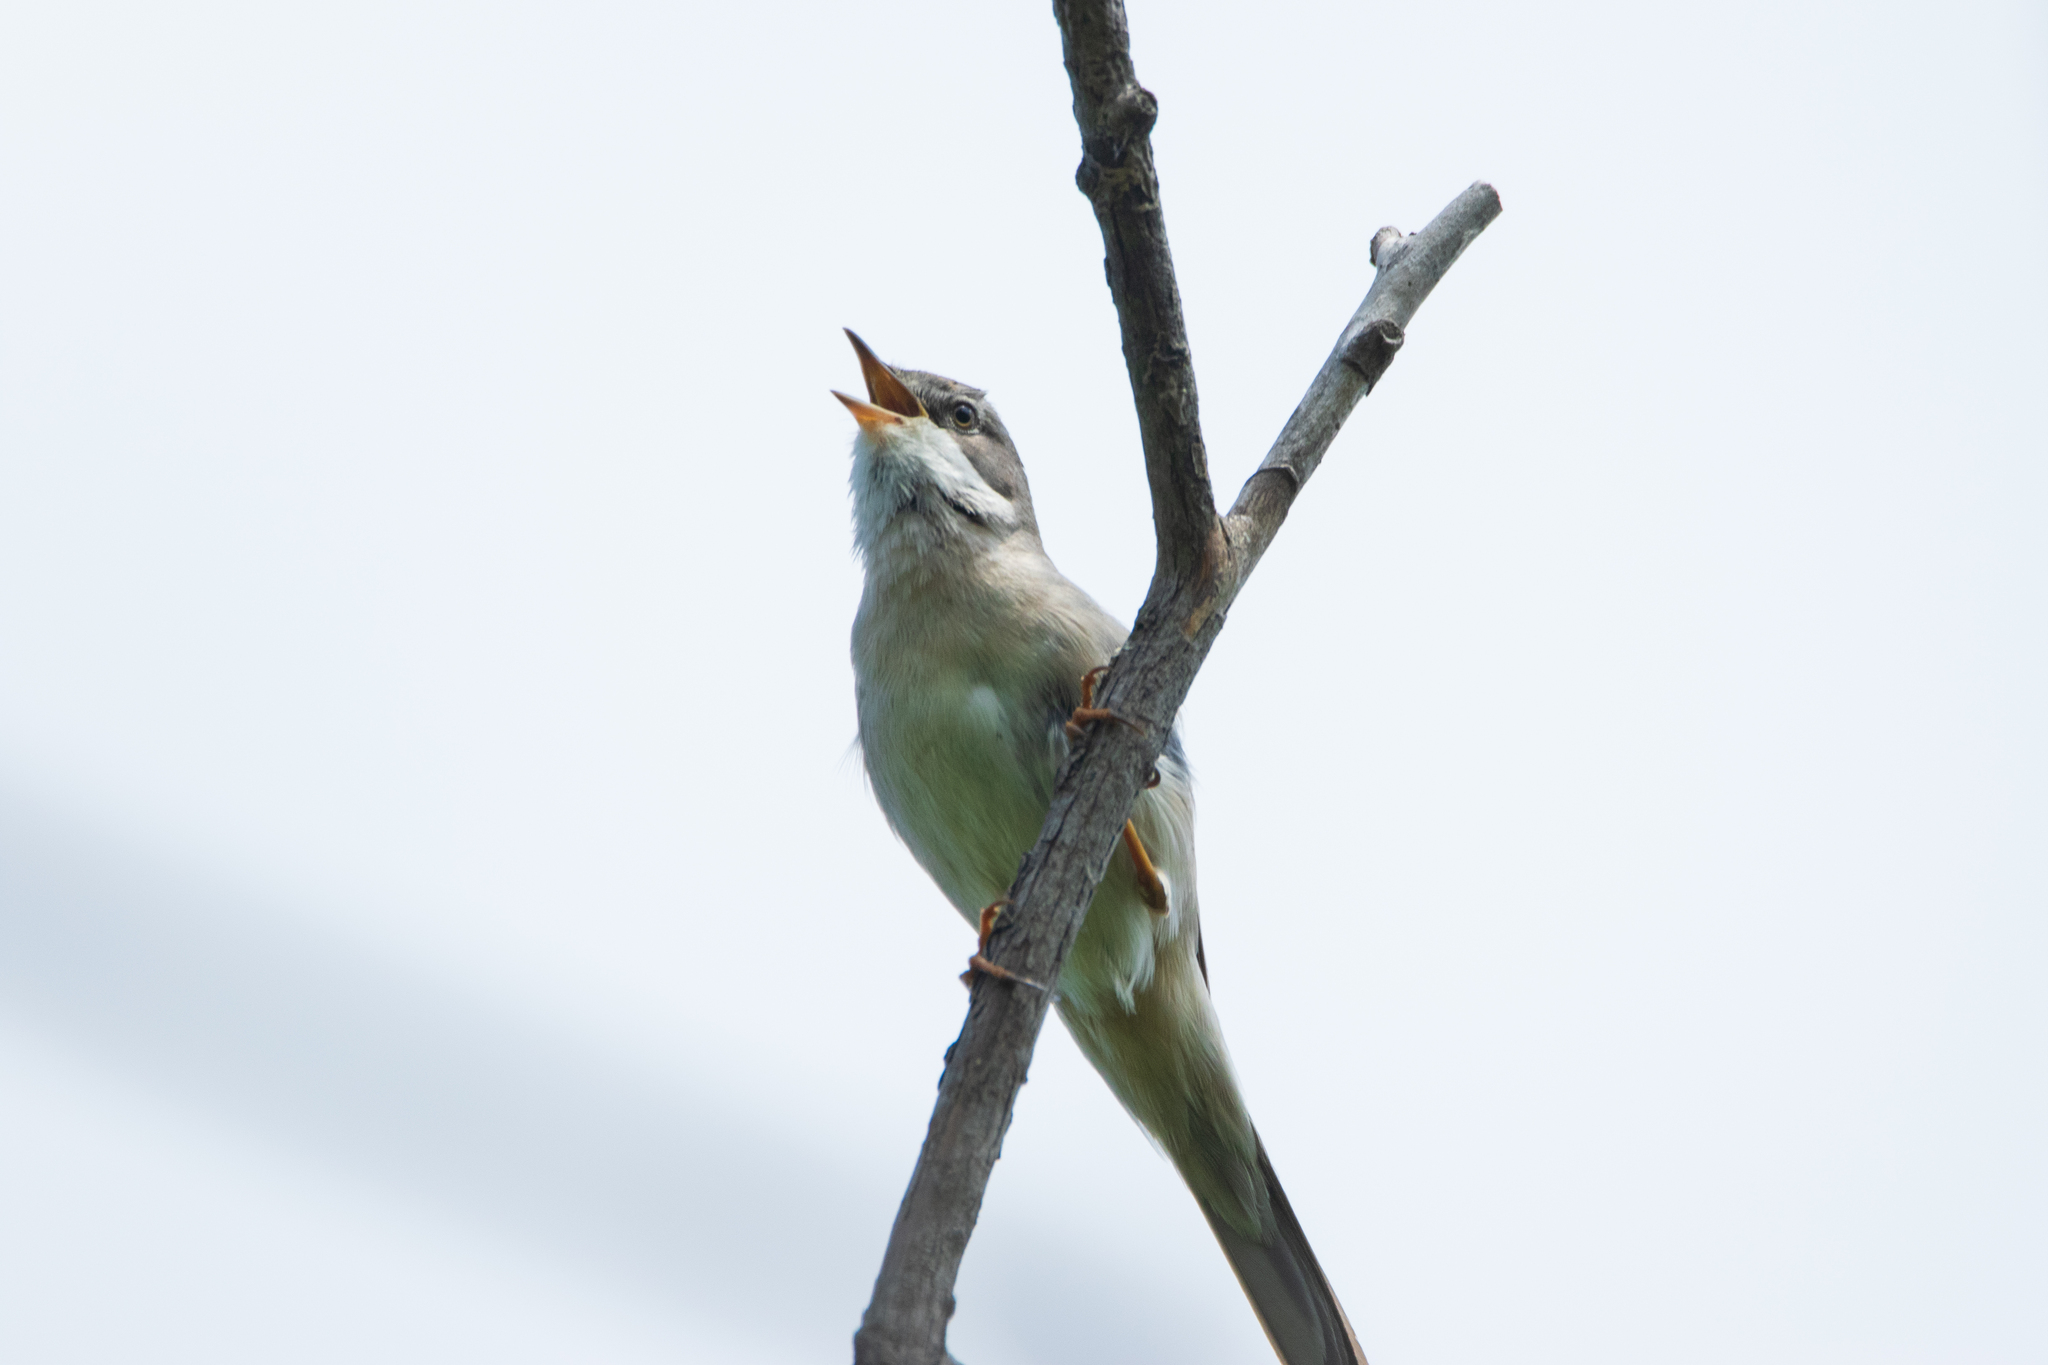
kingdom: Animalia
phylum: Chordata
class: Aves
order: Passeriformes
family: Sylviidae
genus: Sylvia
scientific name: Sylvia communis
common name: Common whitethroat
